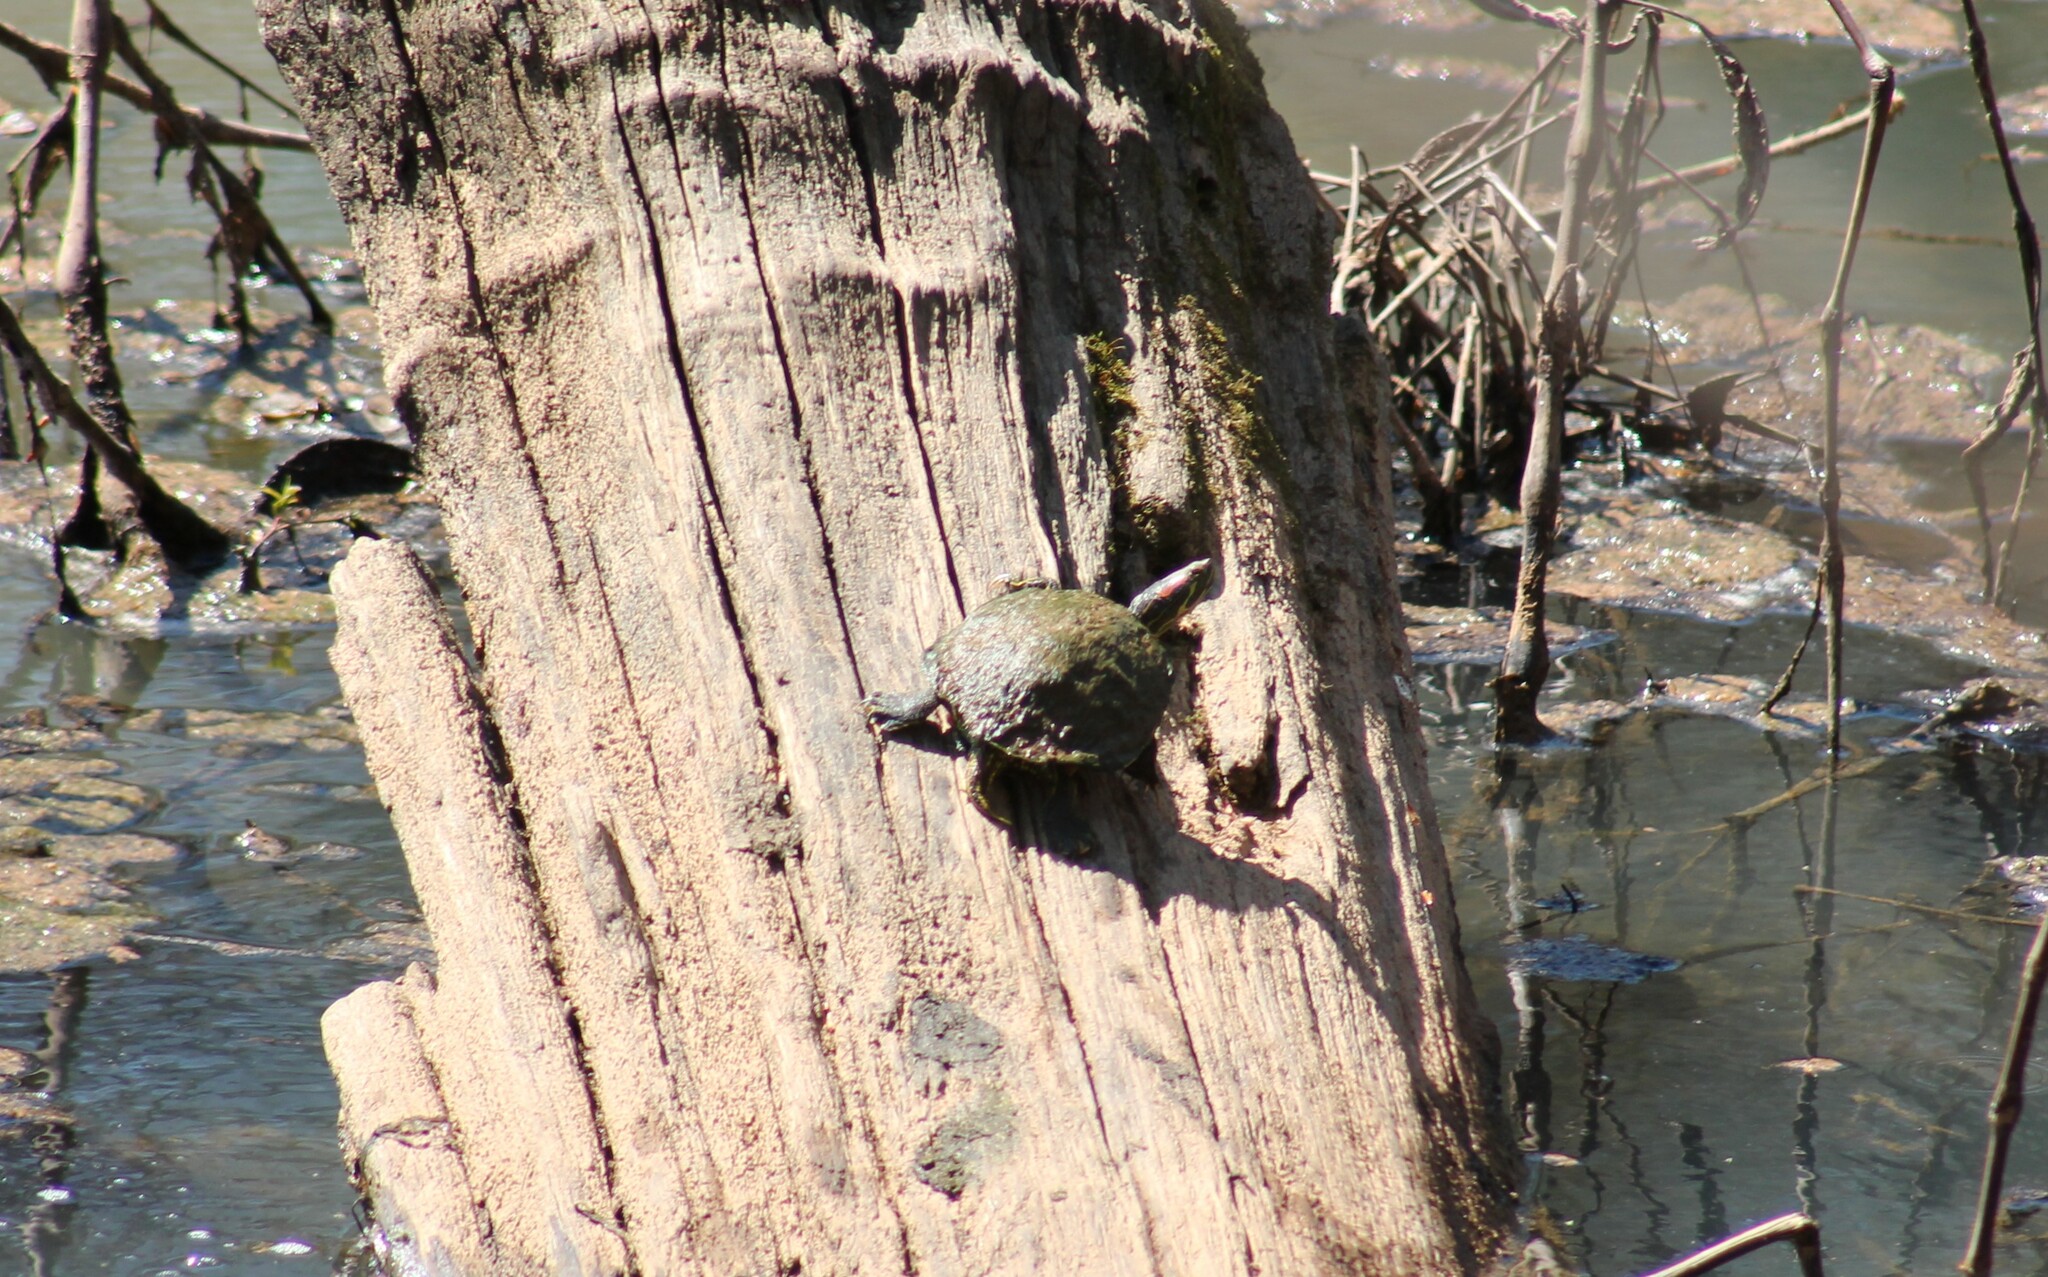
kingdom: Animalia
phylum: Chordata
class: Testudines
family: Emydidae
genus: Trachemys
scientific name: Trachemys scripta
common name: Slider
